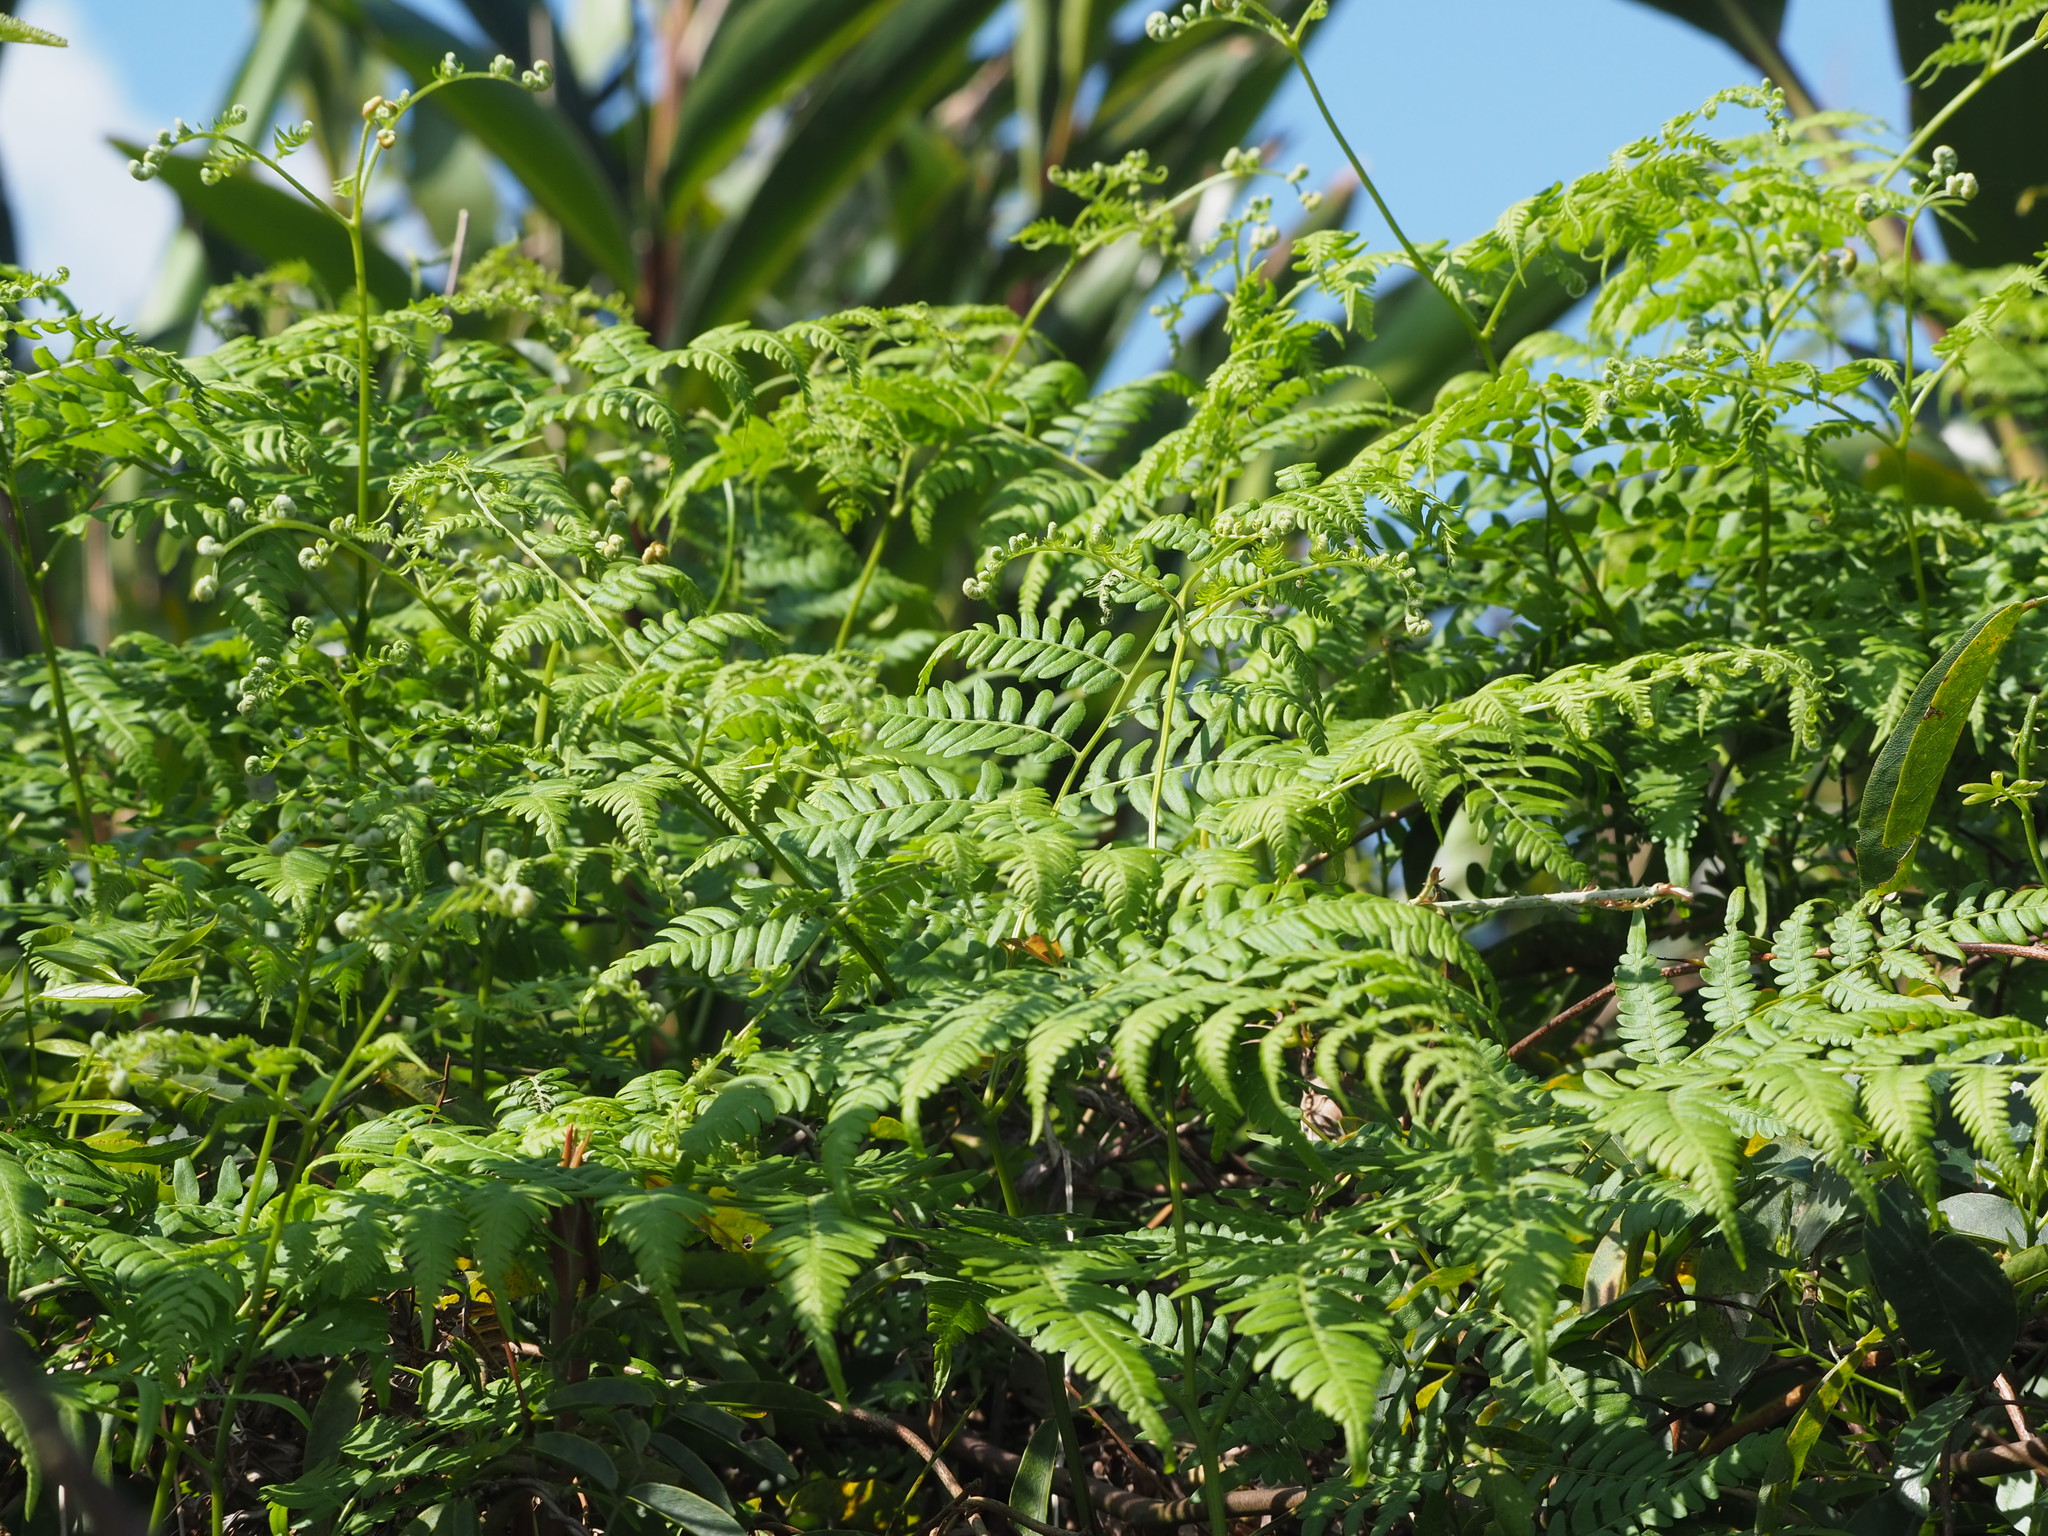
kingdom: Plantae
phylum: Tracheophyta
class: Polypodiopsida
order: Polypodiales
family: Dennstaedtiaceae
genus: Pteridium
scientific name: Pteridium aquilinum
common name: Bracken
